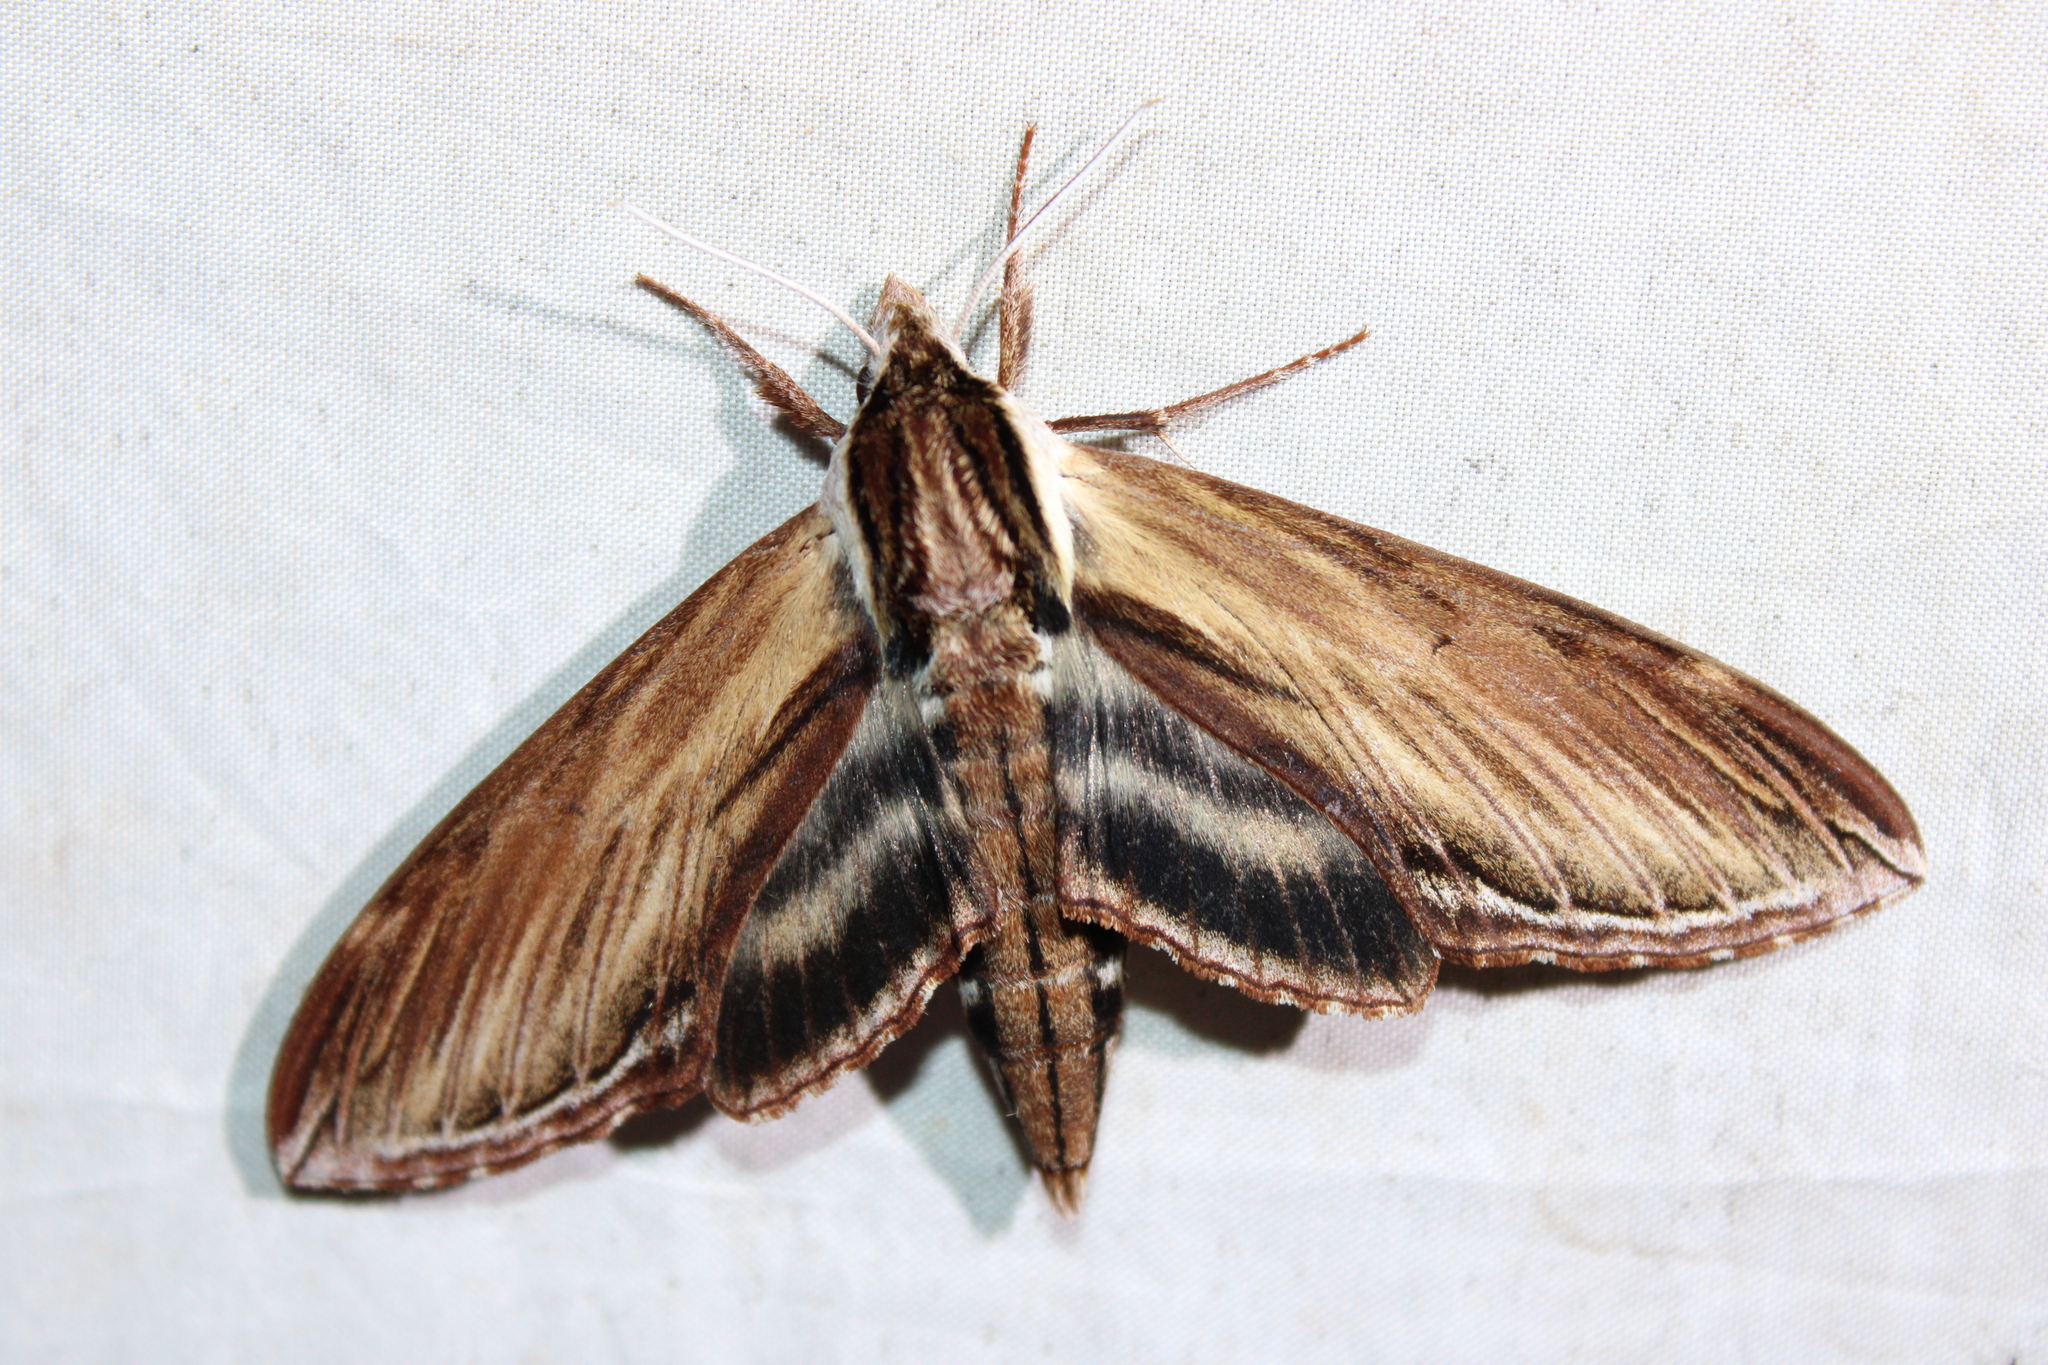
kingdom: Animalia
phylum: Arthropoda
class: Insecta
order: Lepidoptera
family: Sphingidae
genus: Sphinx
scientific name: Sphinx kalmiae
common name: Laurel sphinx
